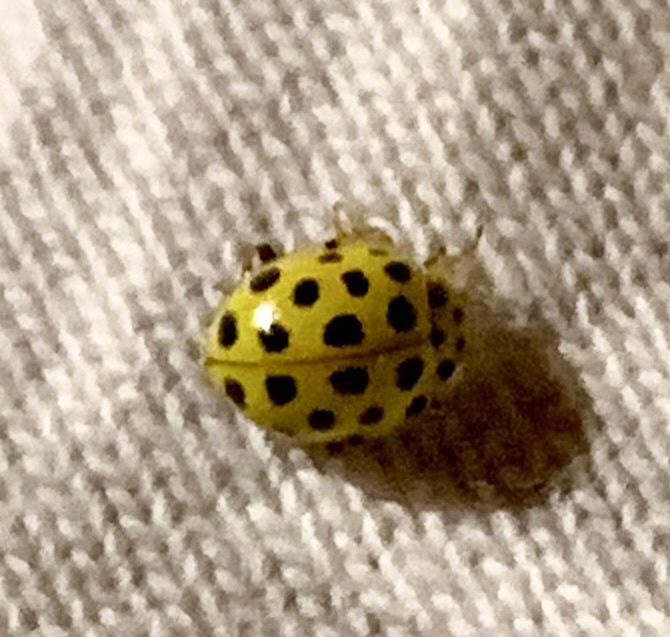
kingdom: Animalia
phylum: Arthropoda
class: Insecta
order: Coleoptera
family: Coccinellidae
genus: Psyllobora
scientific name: Psyllobora vigintiduopunctata
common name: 22-spot ladybird
